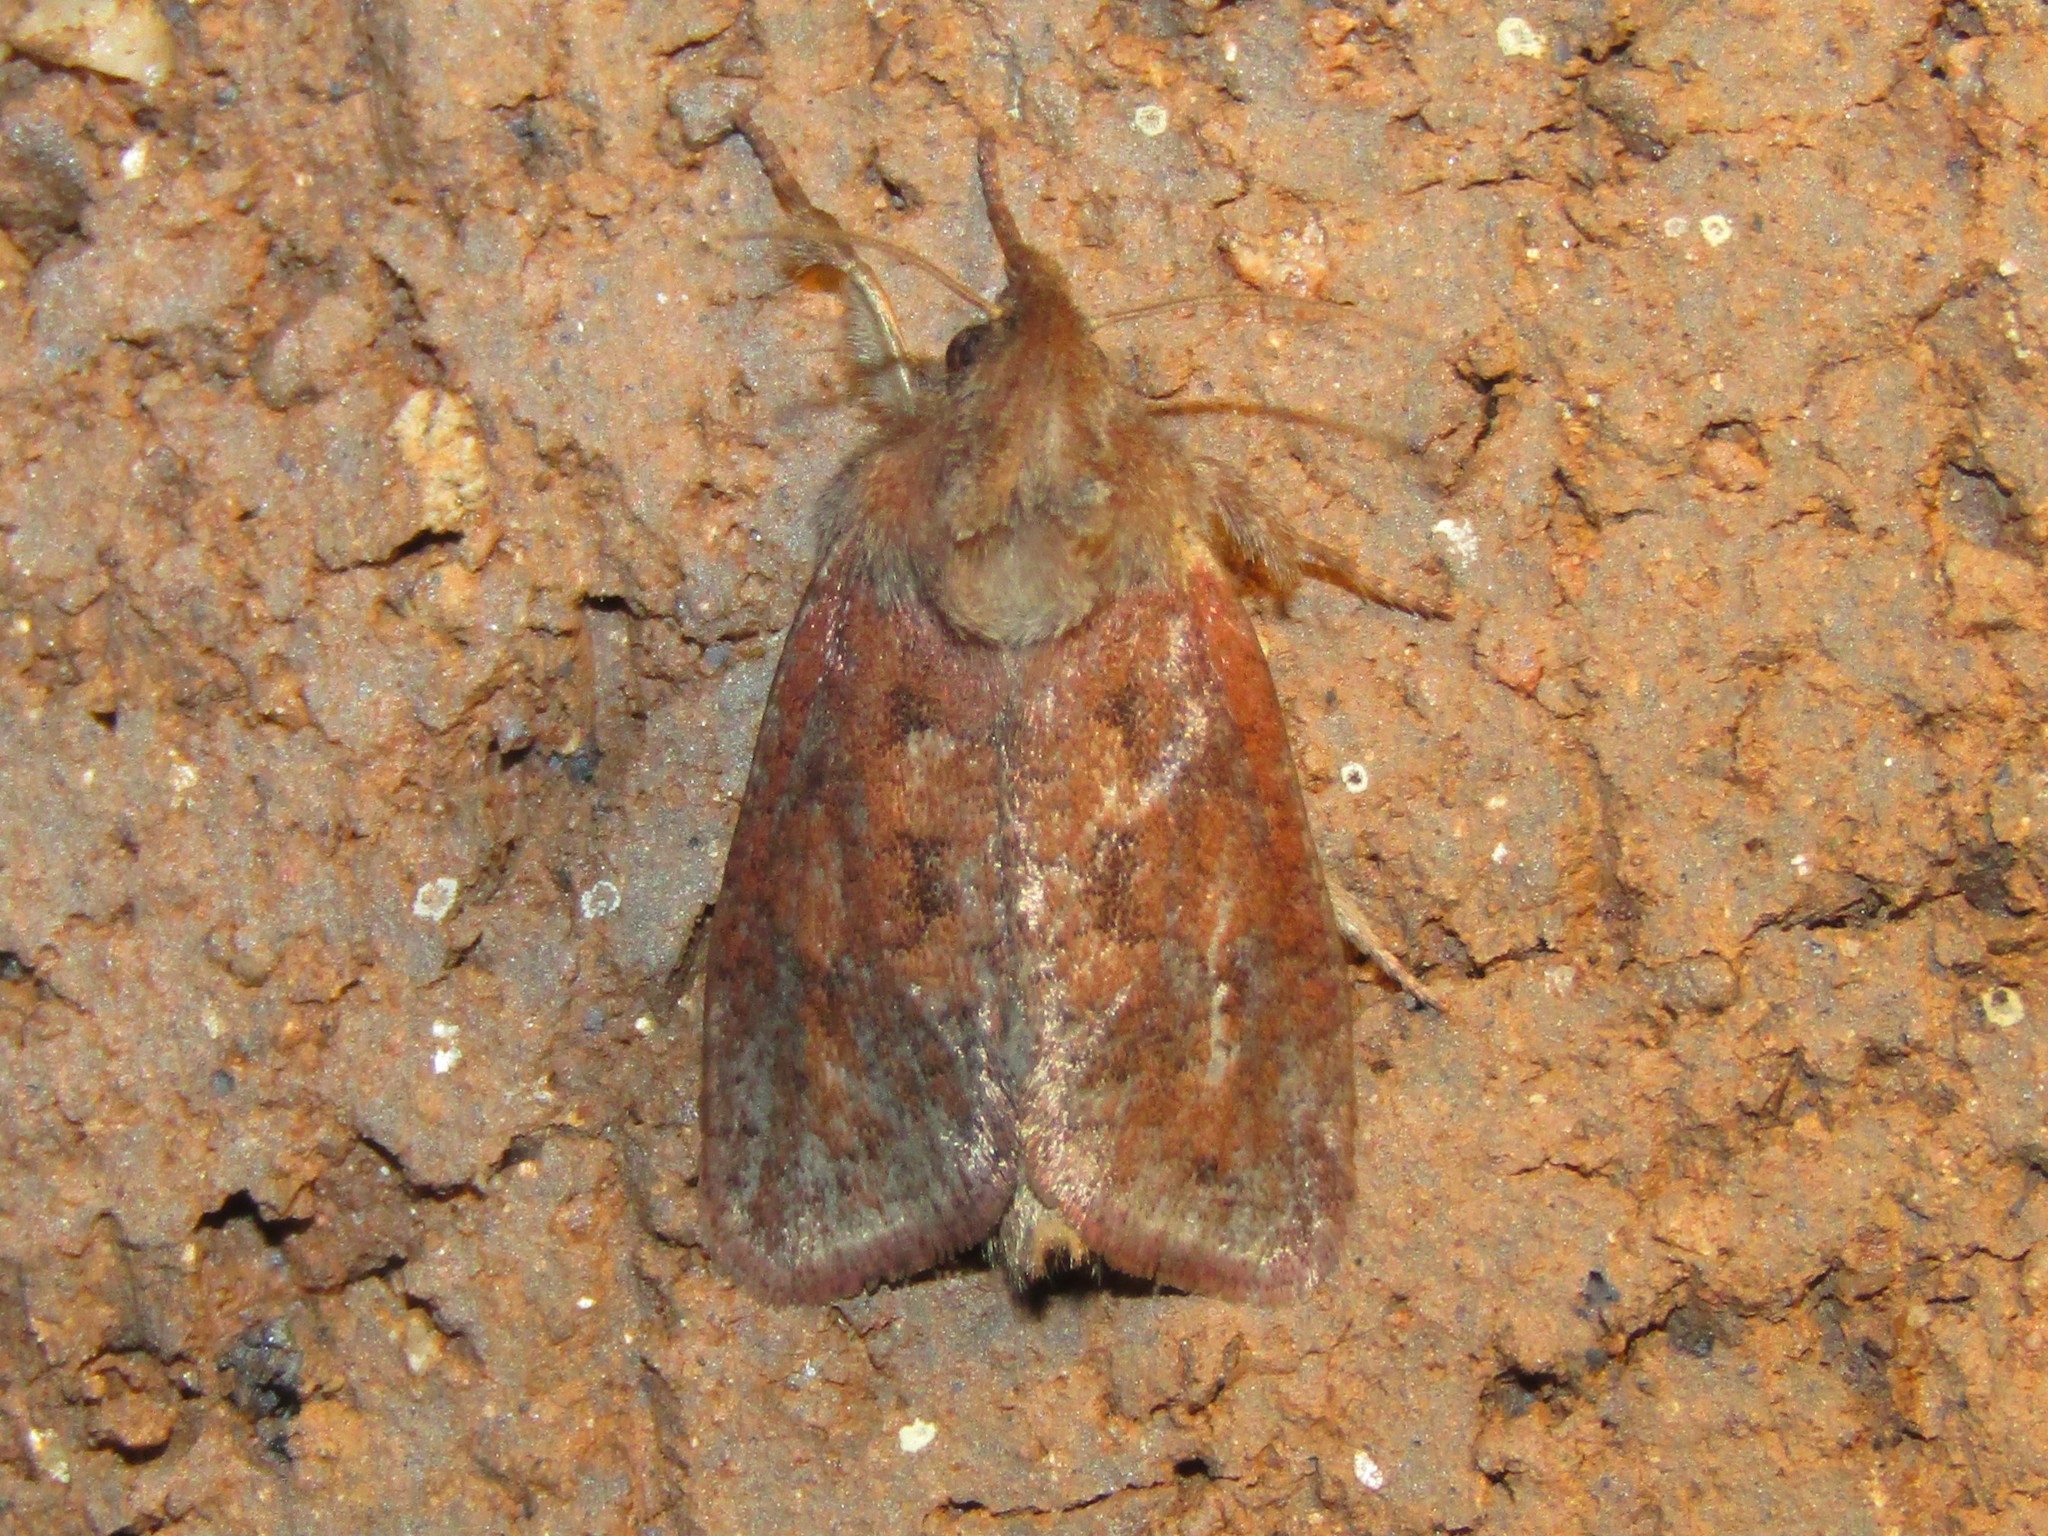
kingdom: Animalia
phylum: Arthropoda
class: Insecta
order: Lepidoptera
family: Tineidae
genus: Acrolophus
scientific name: Acrolophus plumifrontella
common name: Eastern grass tubeworm moth
